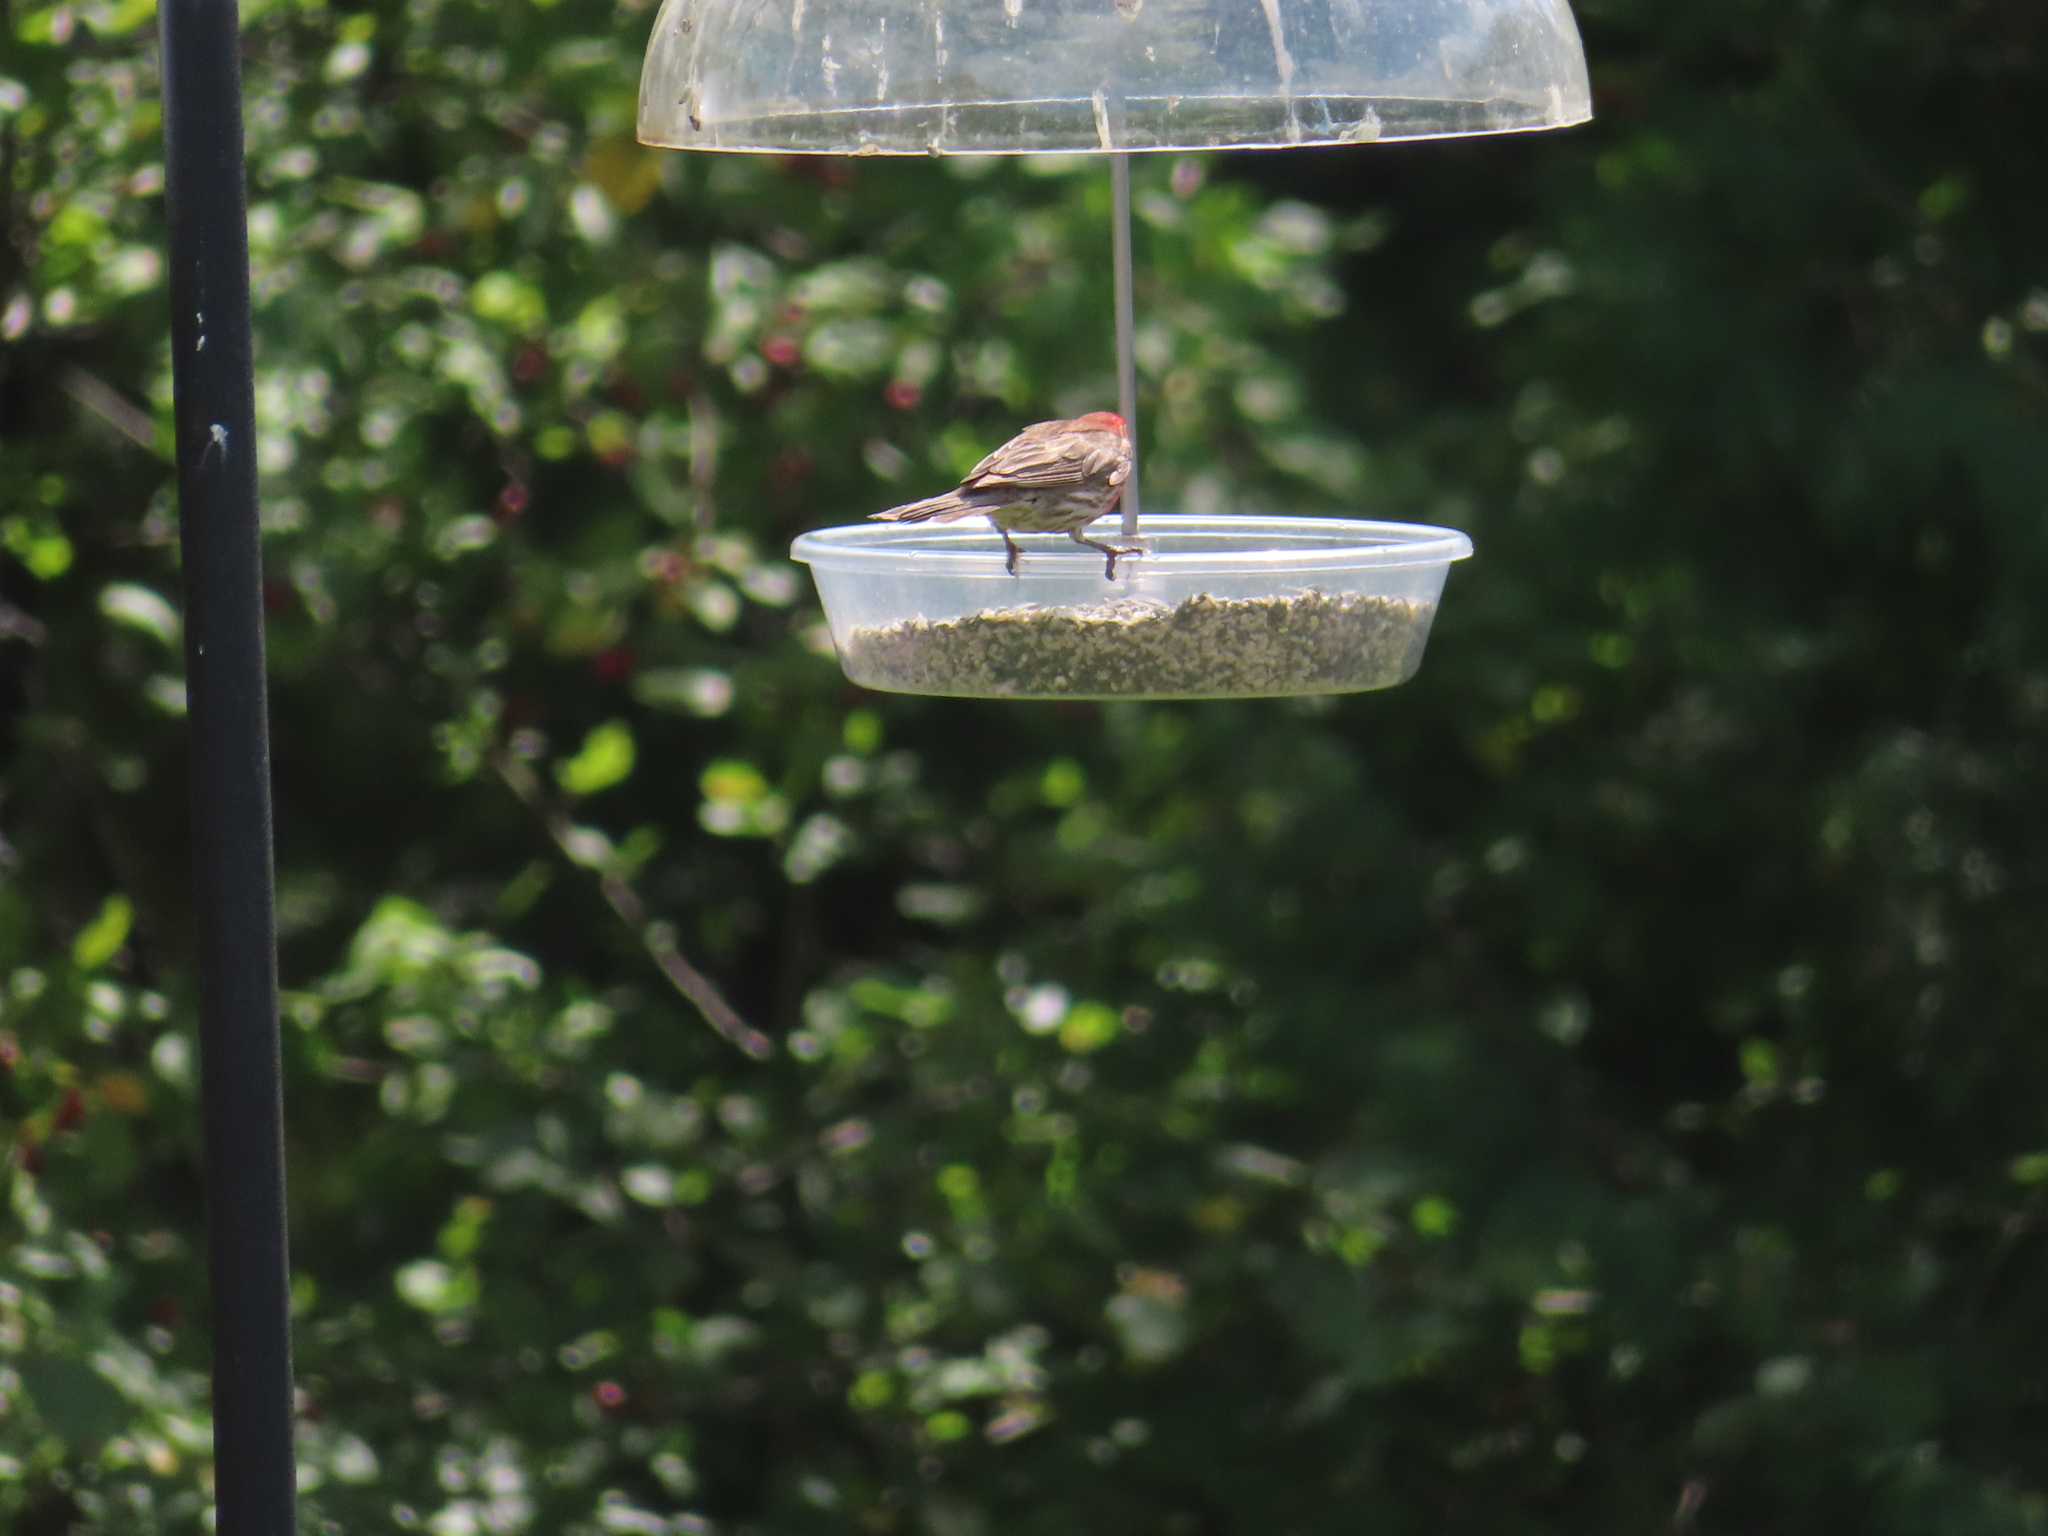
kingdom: Animalia
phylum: Chordata
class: Aves
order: Passeriformes
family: Fringillidae
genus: Haemorhous
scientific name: Haemorhous mexicanus
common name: House finch
